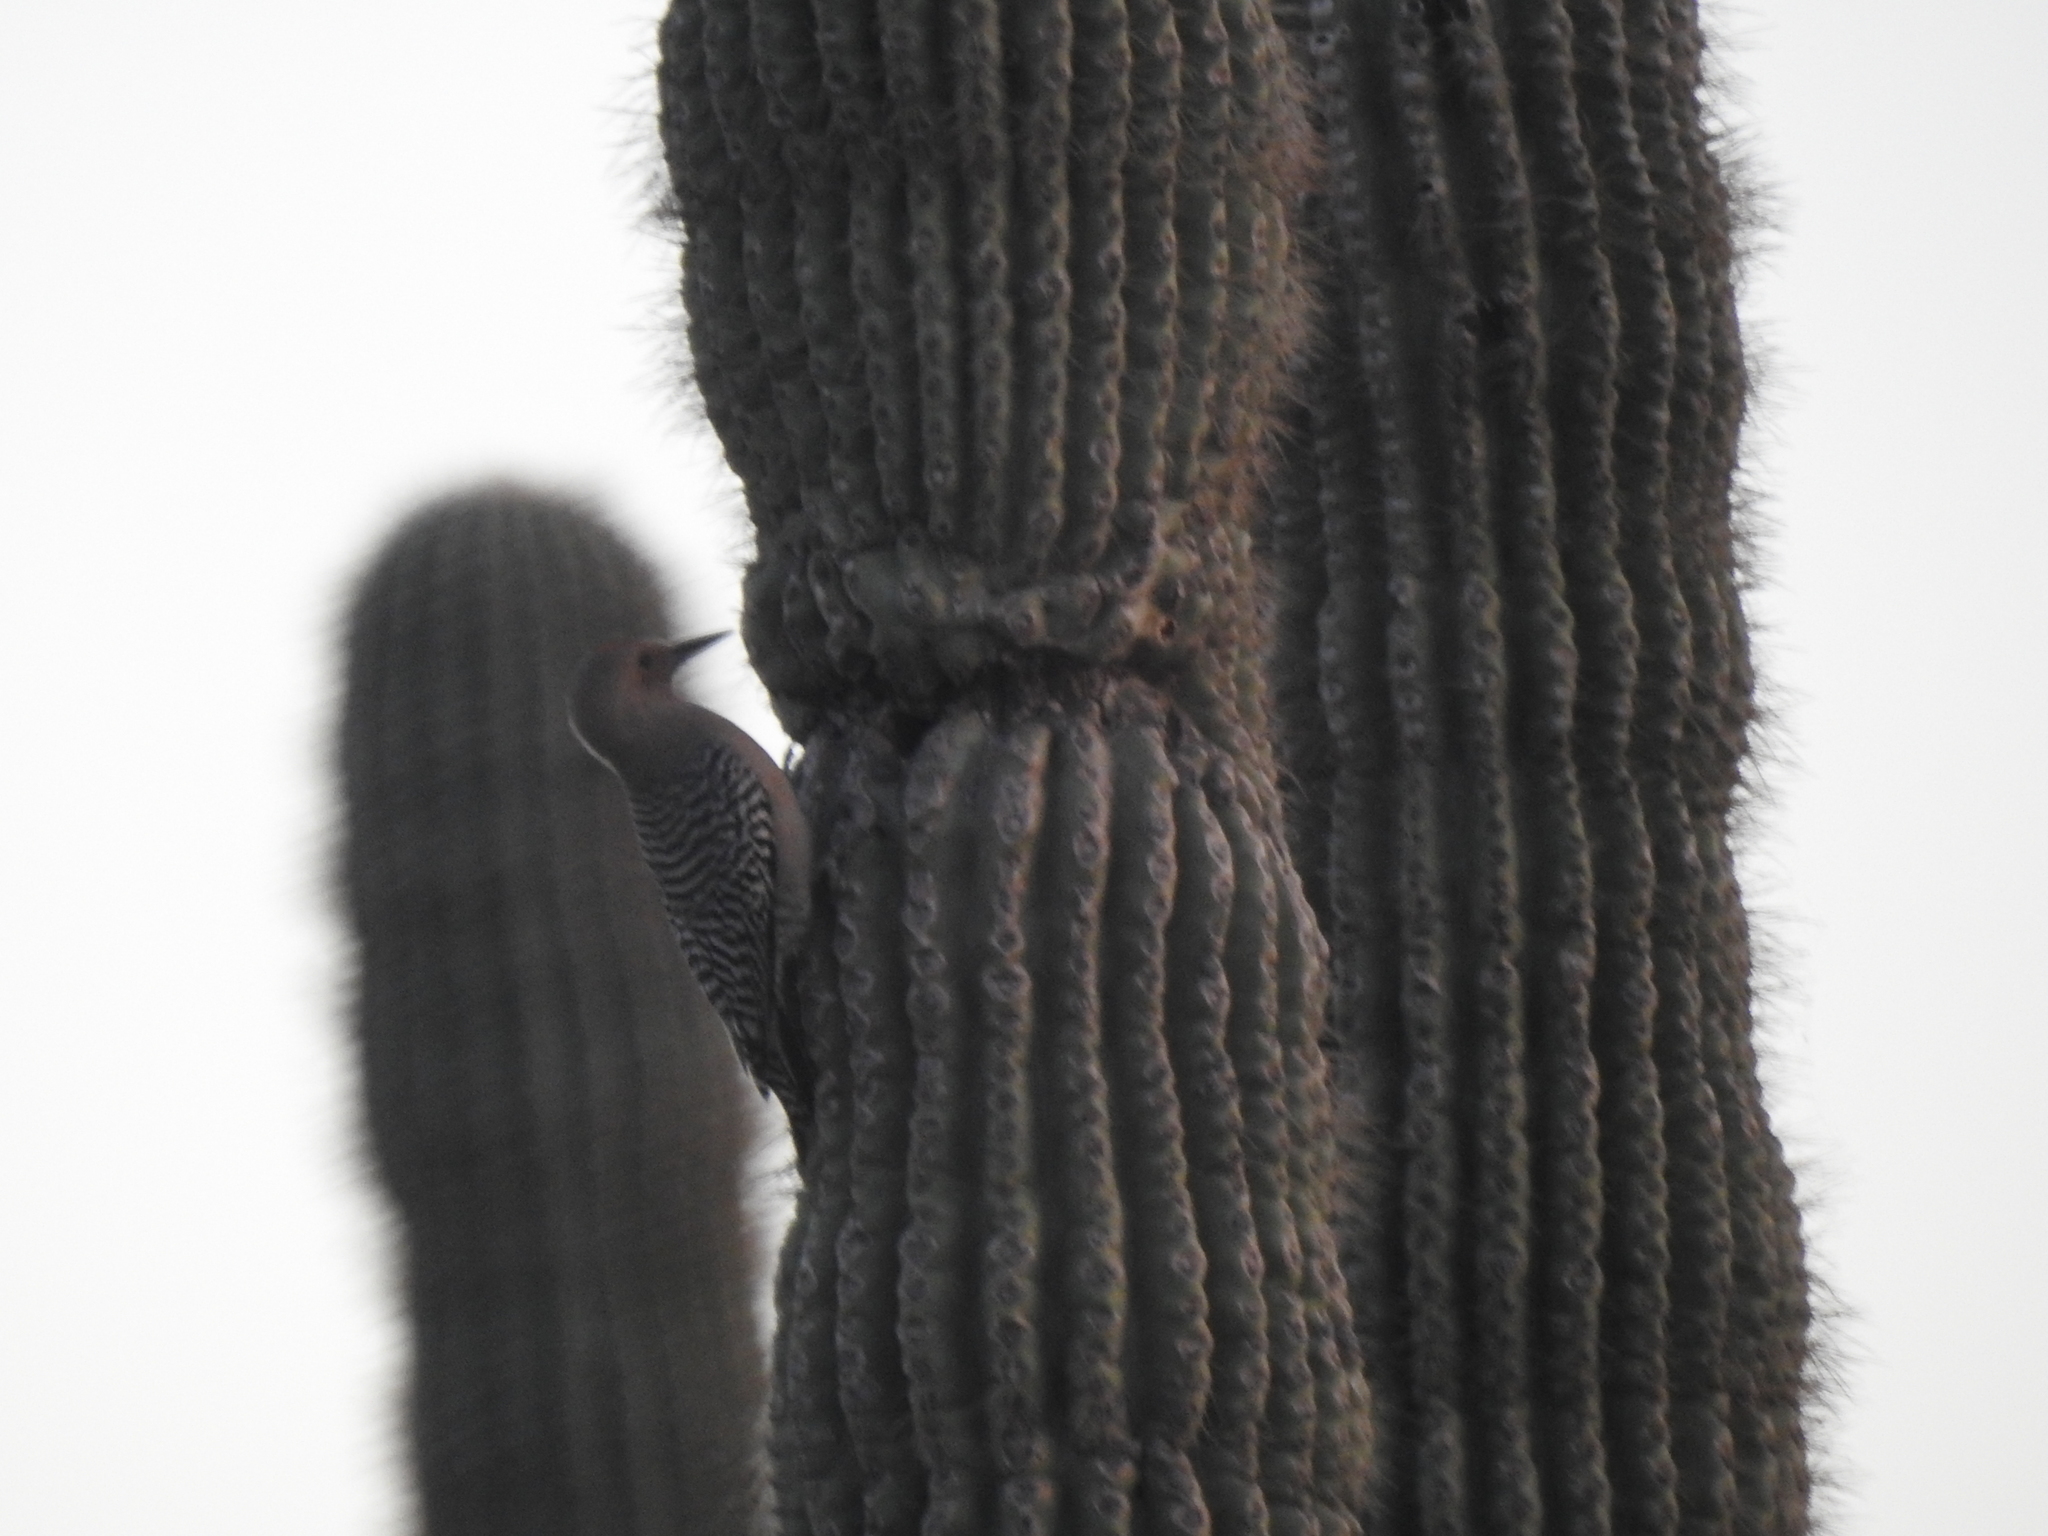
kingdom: Animalia
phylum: Chordata
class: Aves
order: Piciformes
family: Picidae
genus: Melanerpes
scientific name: Melanerpes uropygialis
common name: Gila woodpecker
